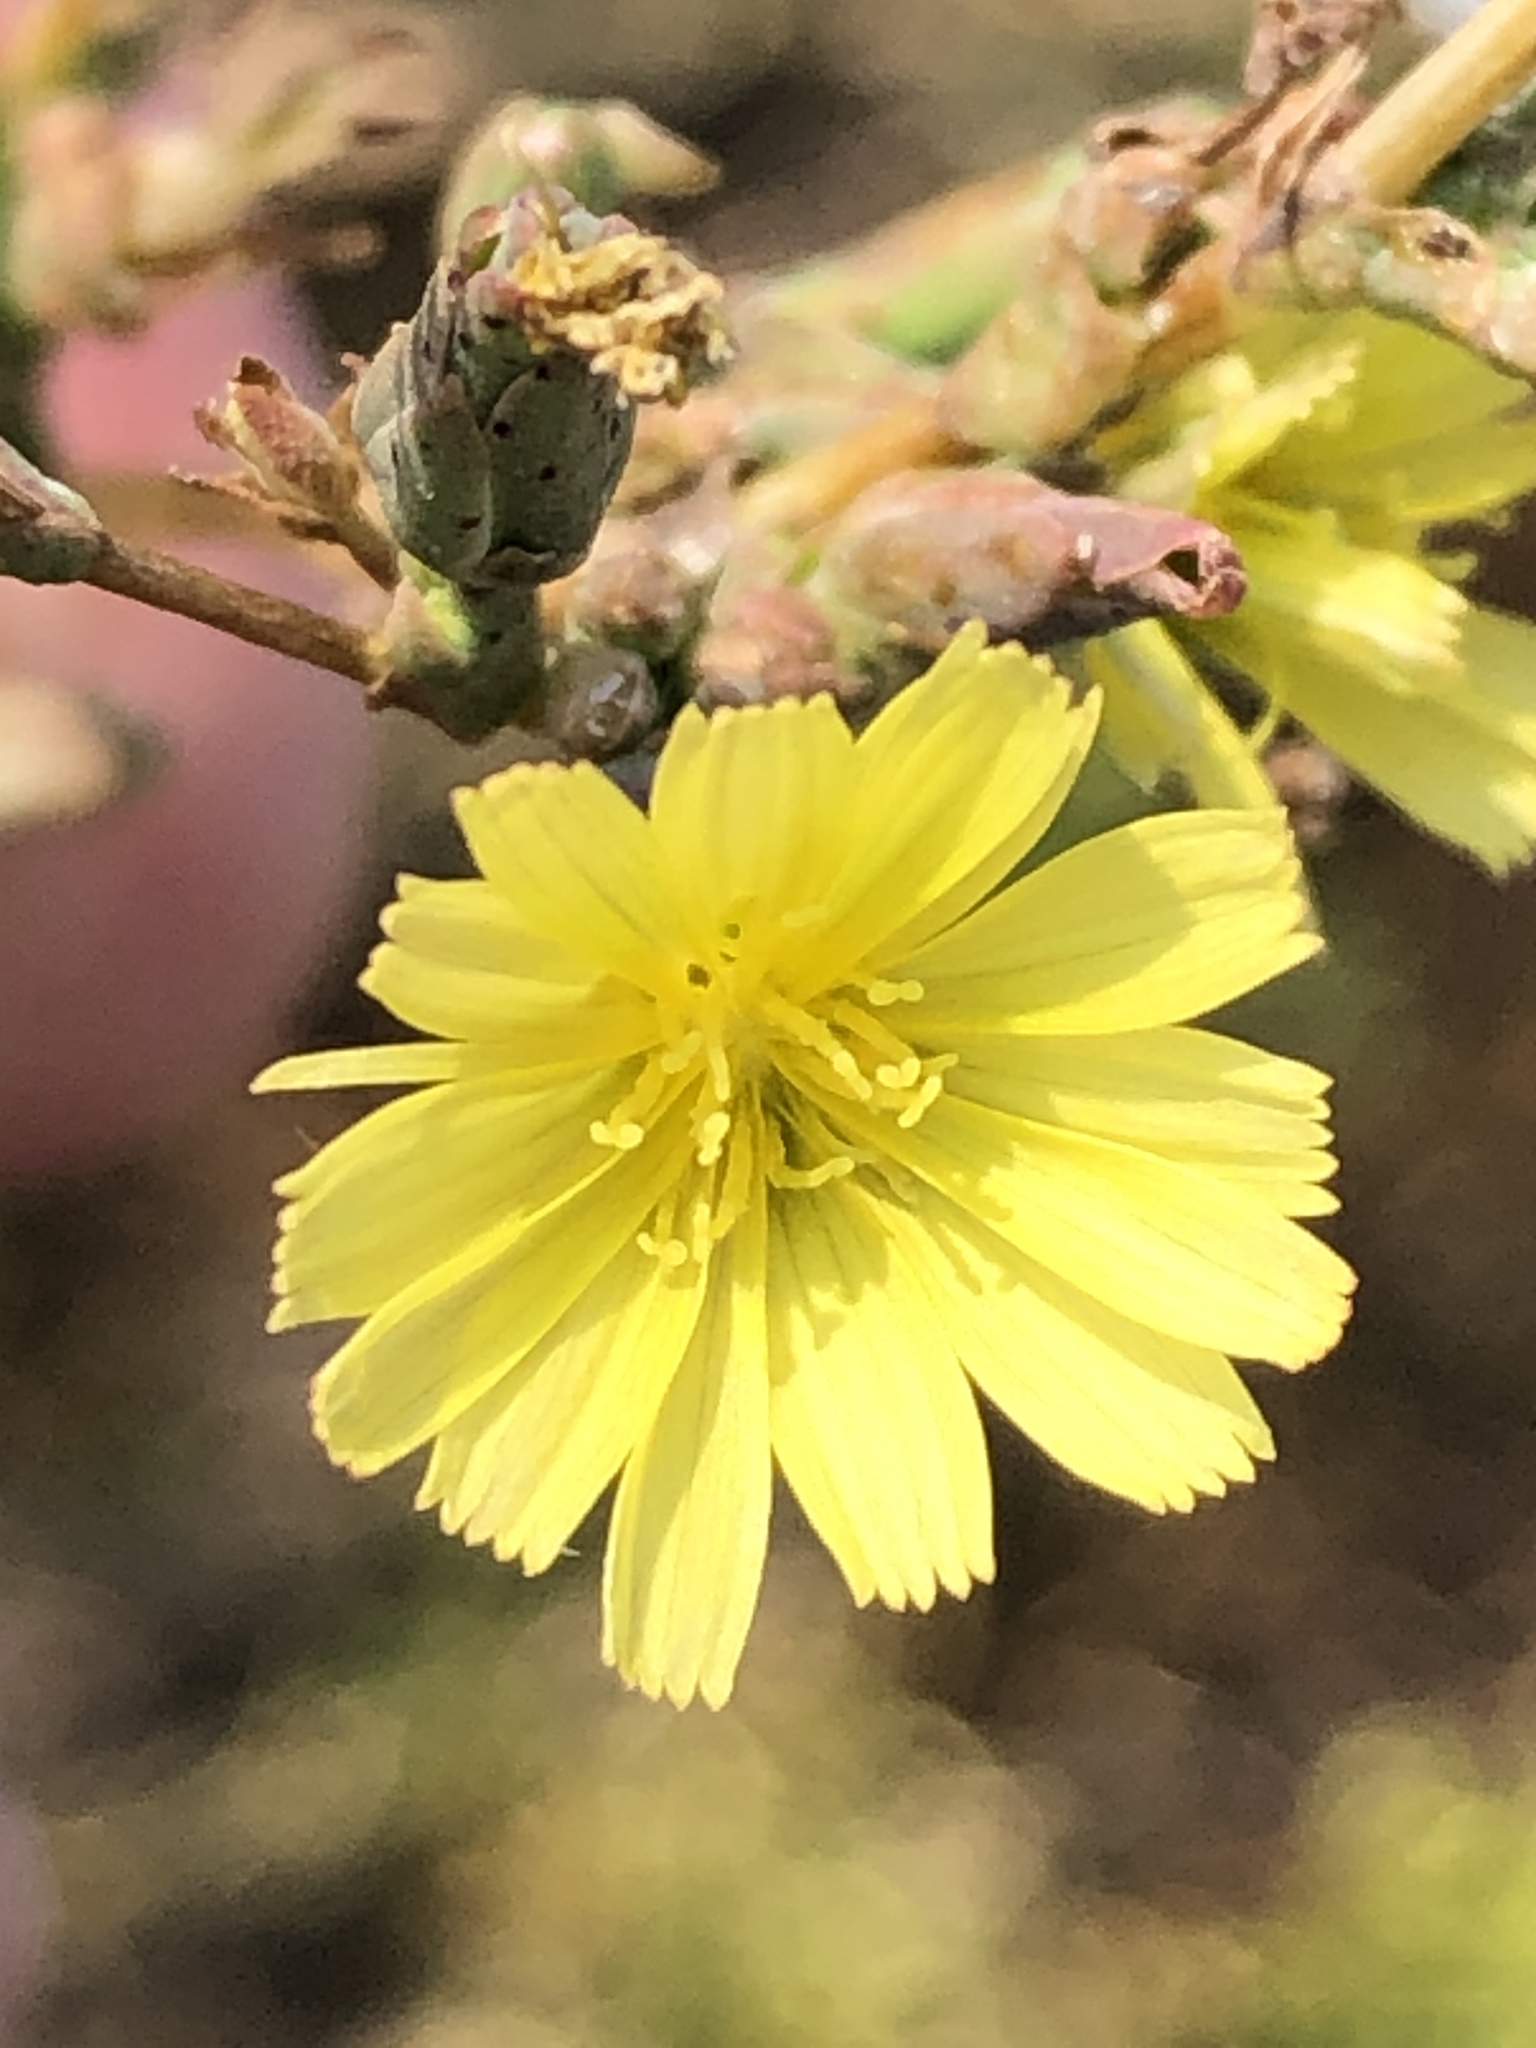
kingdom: Plantae
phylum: Tracheophyta
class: Magnoliopsida
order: Asterales
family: Asteraceae
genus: Lactuca
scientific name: Lactuca serriola
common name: Prickly lettuce
